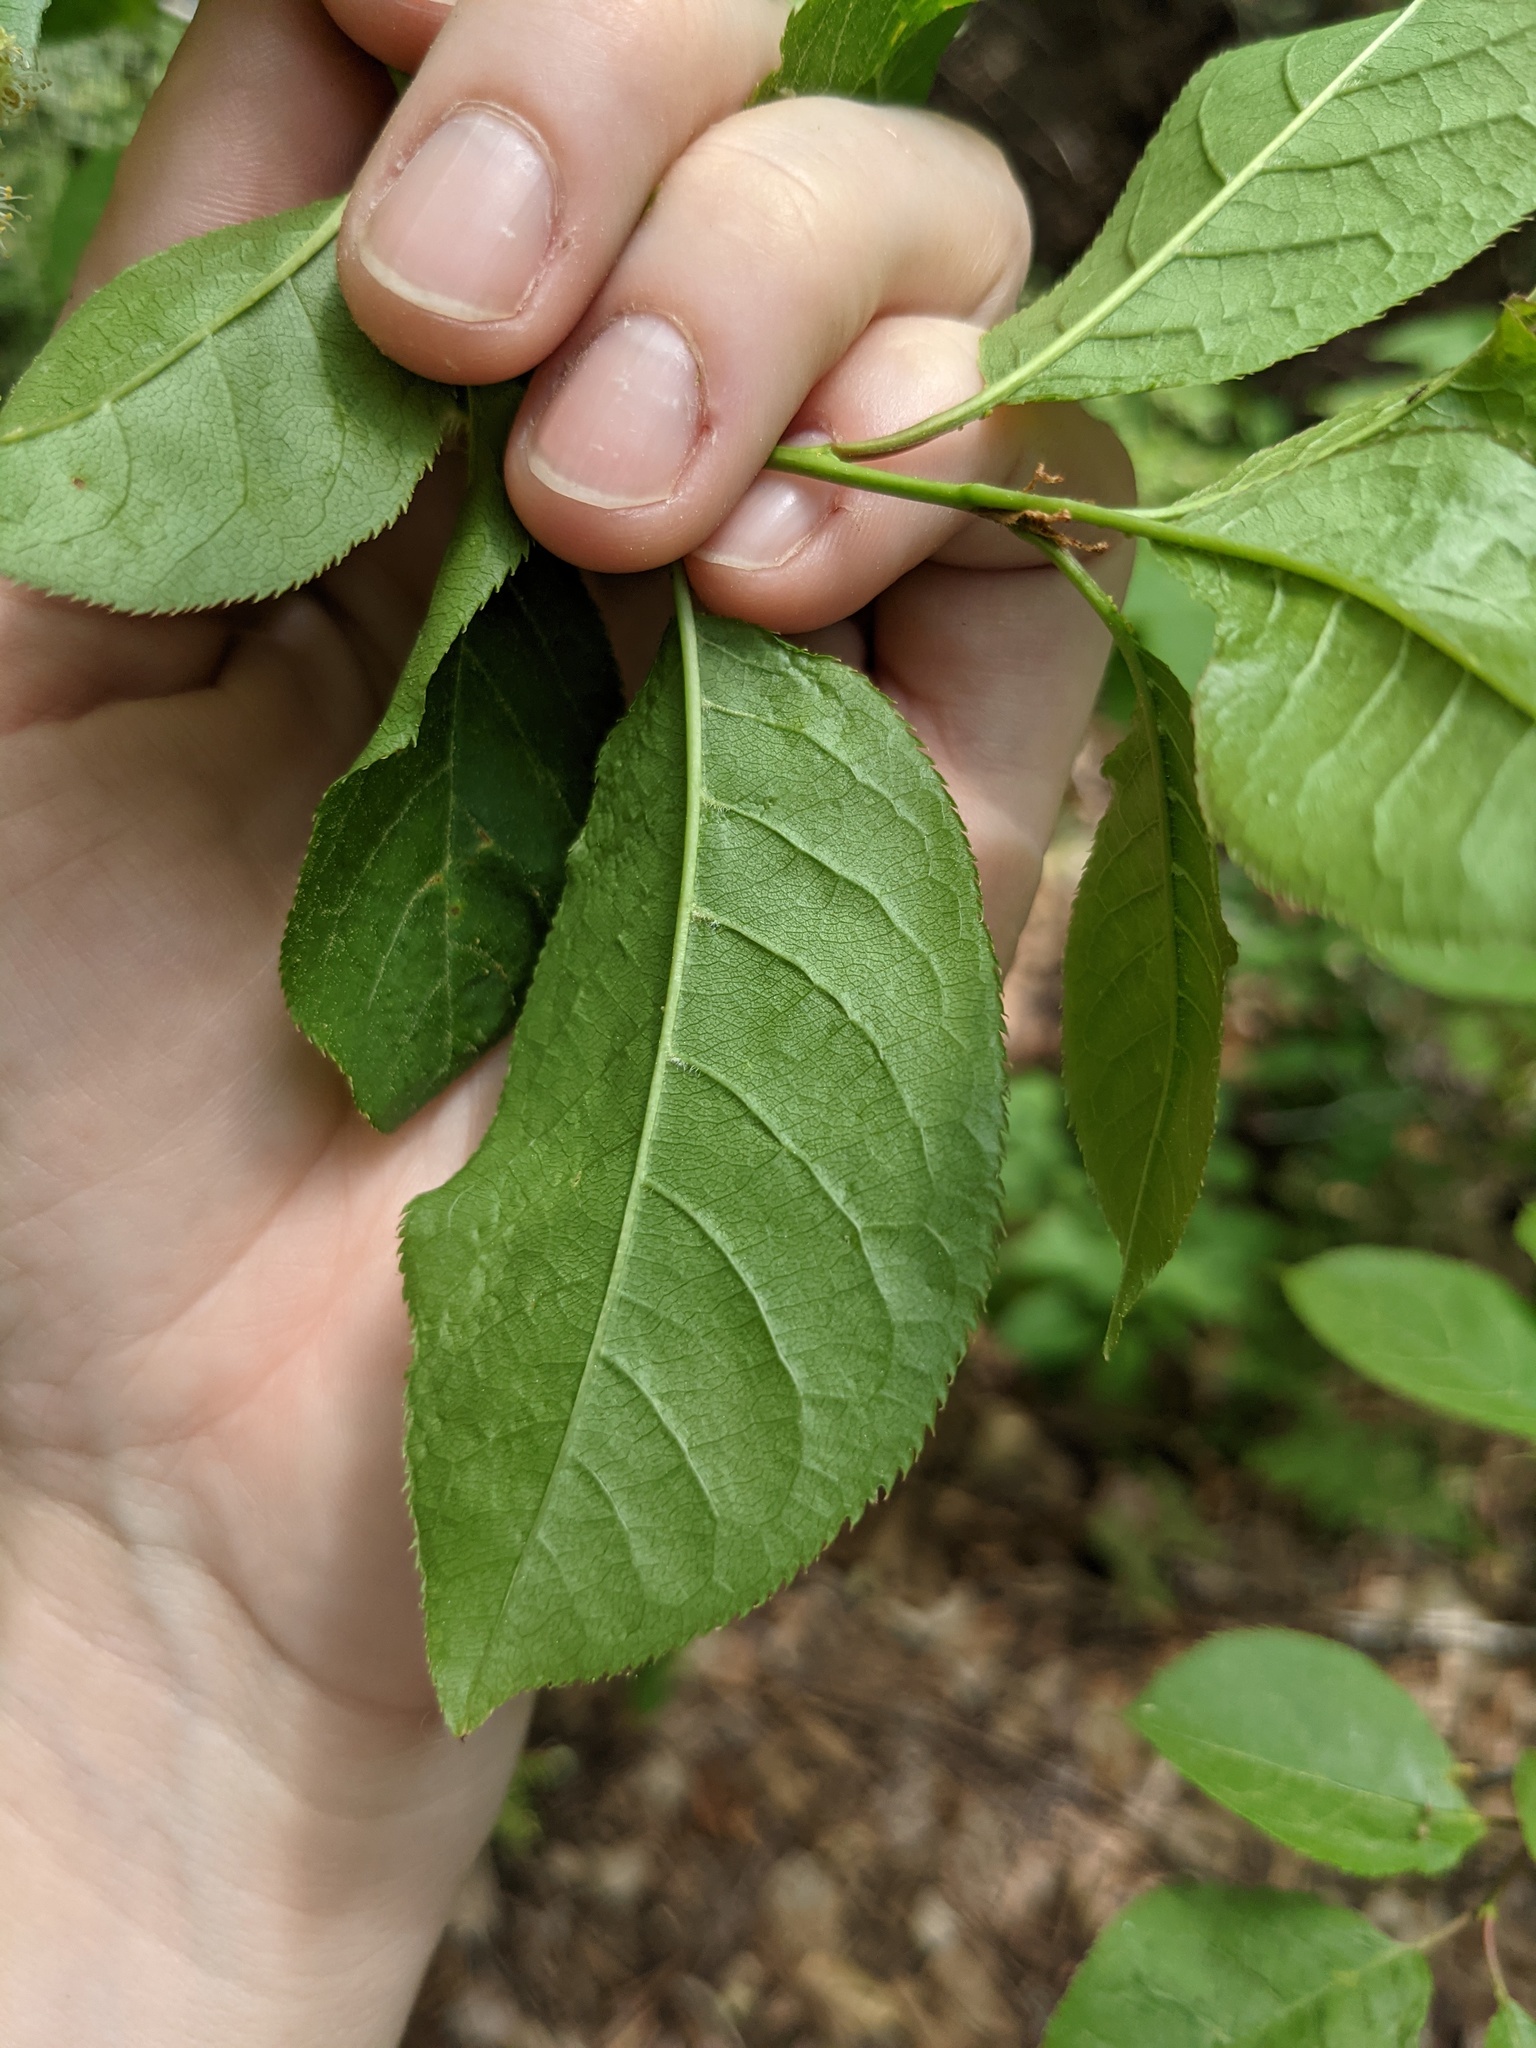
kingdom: Plantae
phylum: Tracheophyta
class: Magnoliopsida
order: Rosales
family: Rosaceae
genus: Prunus
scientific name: Prunus virginiana
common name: Chokecherry
